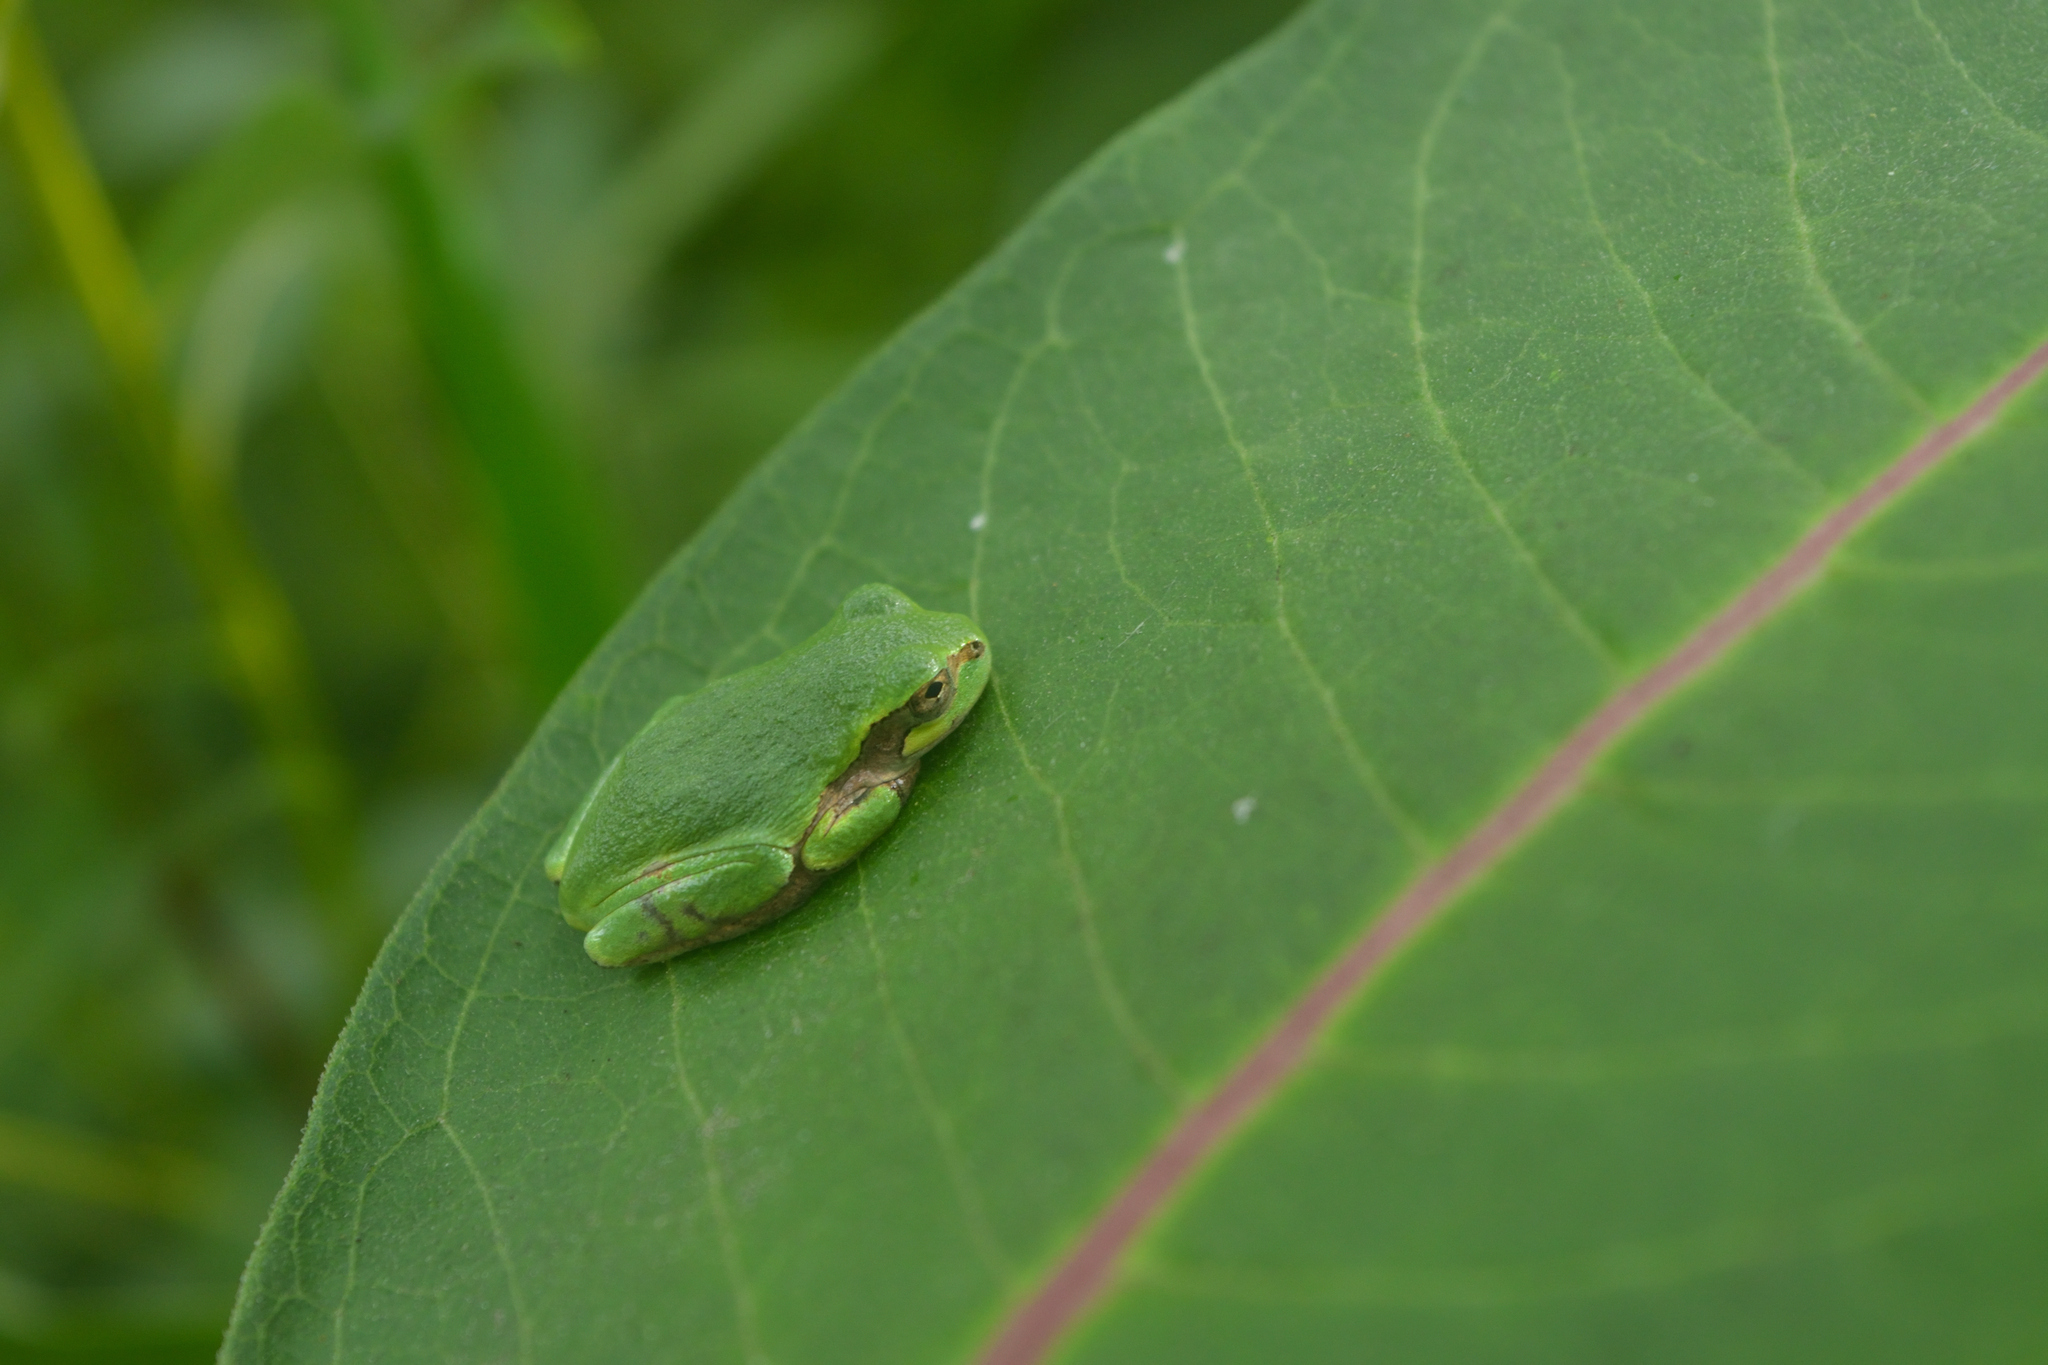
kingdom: Animalia
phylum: Chordata
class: Amphibia
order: Anura
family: Hylidae
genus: Hyla
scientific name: Hyla
